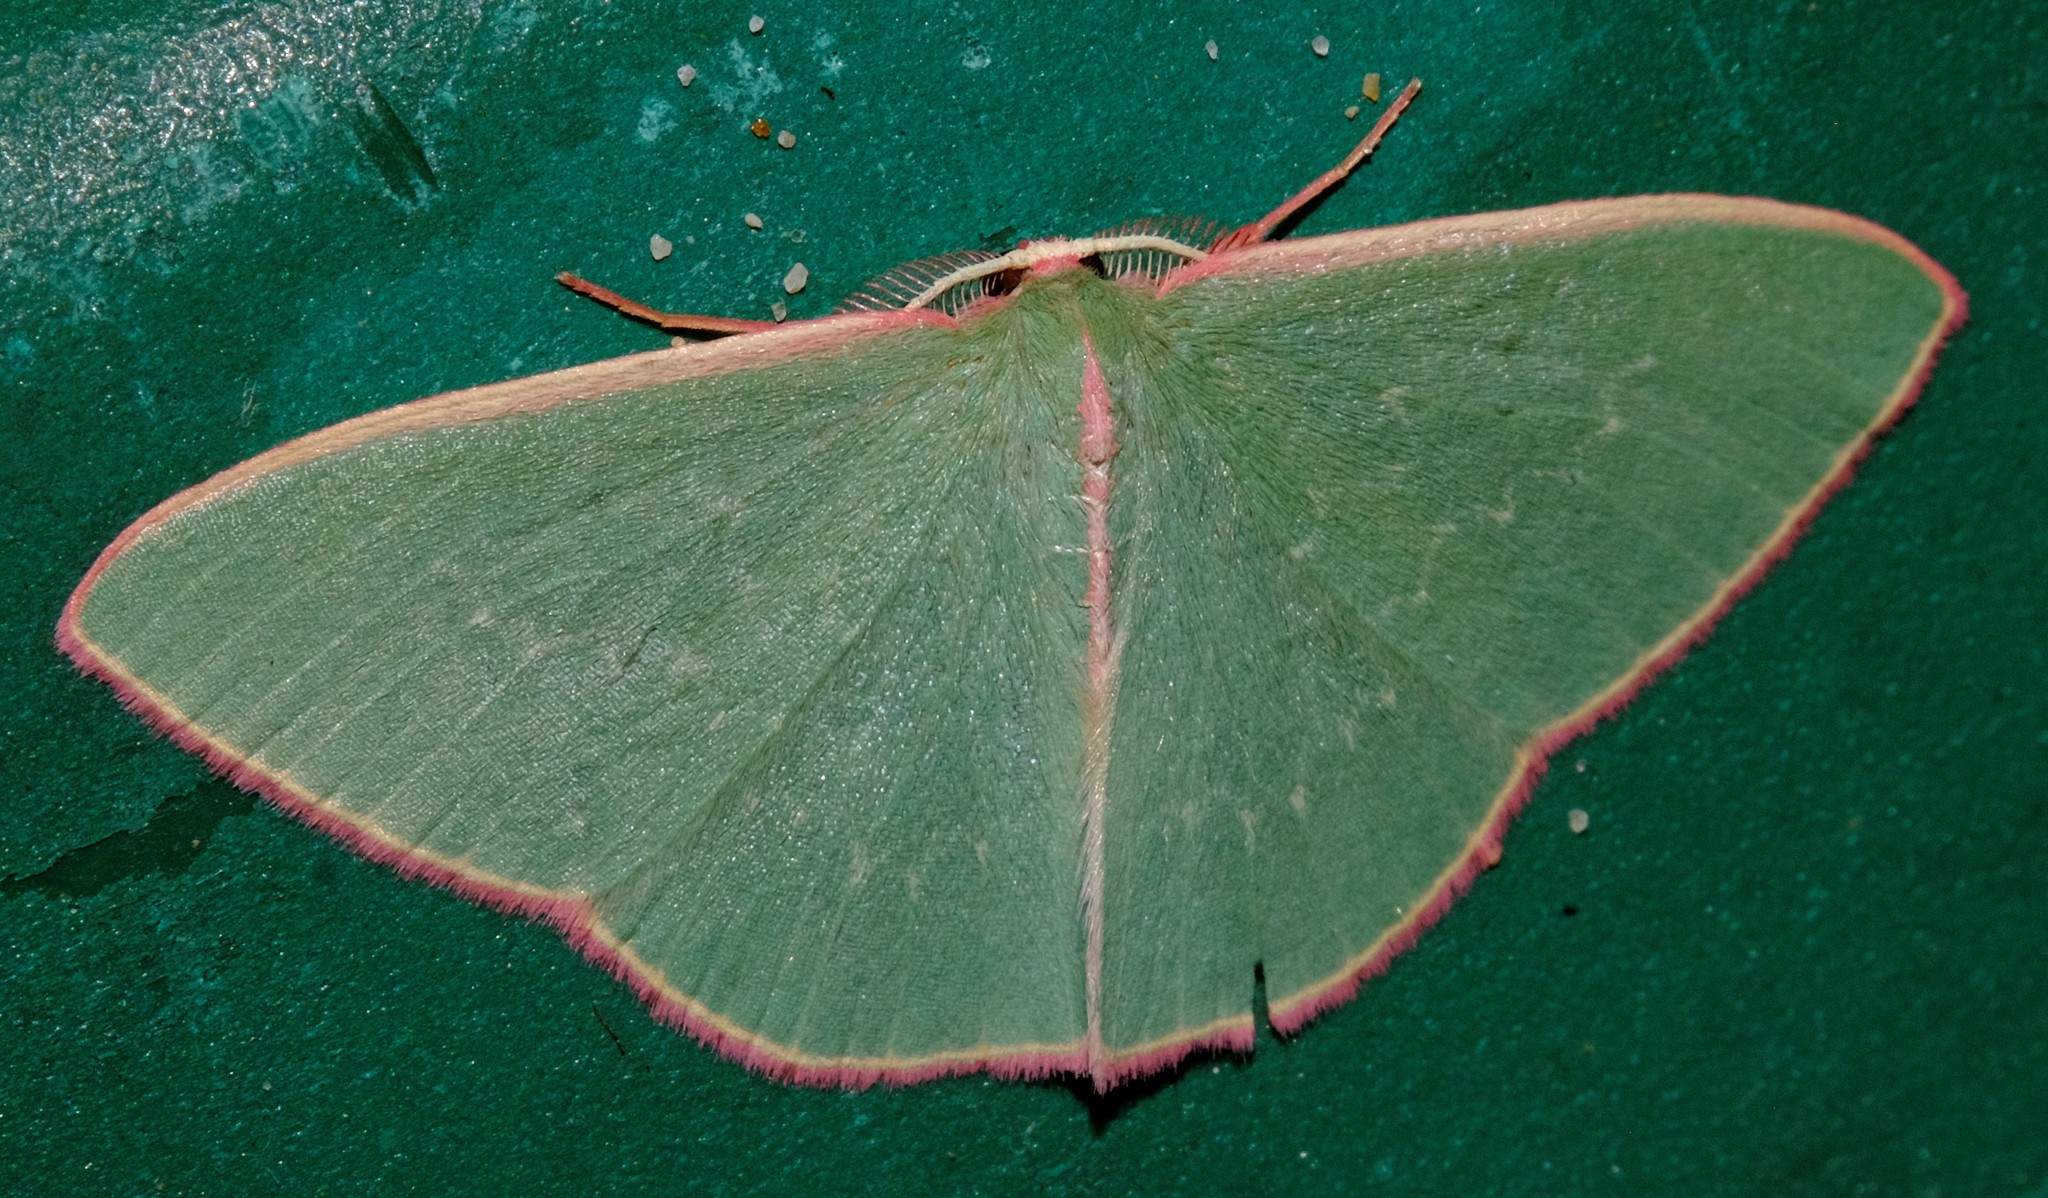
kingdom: Animalia
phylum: Arthropoda
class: Insecta
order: Lepidoptera
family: Geometridae
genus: Chlorocoma
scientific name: Chlorocoma
